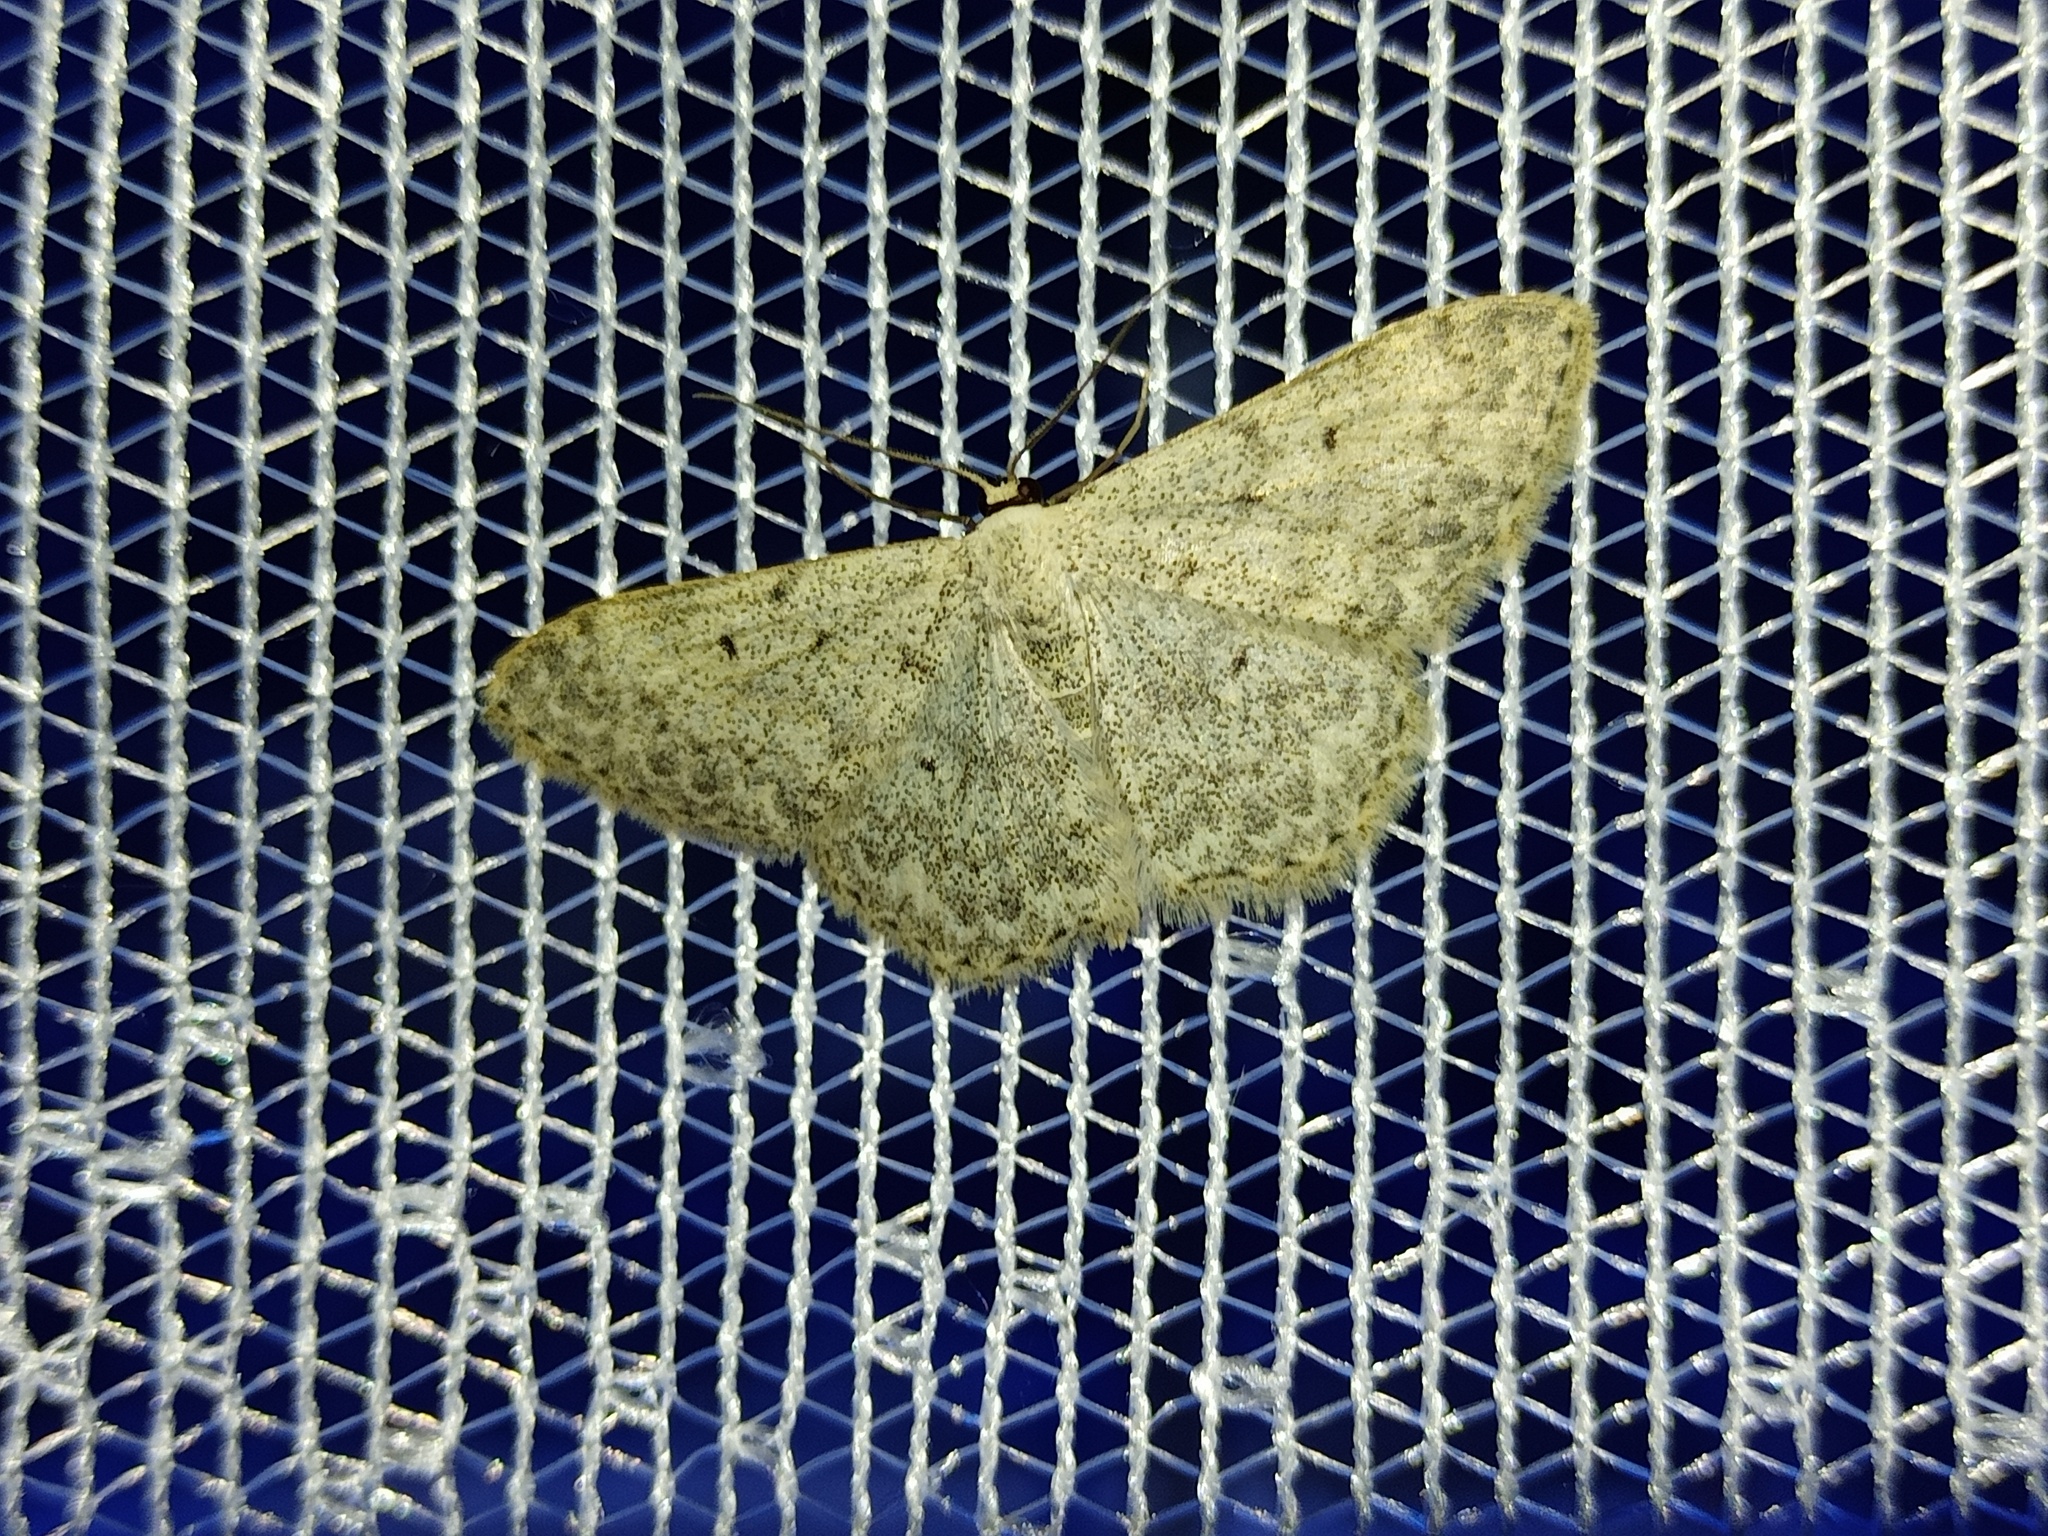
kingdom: Animalia
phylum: Arthropoda
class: Insecta
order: Lepidoptera
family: Geometridae
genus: Scopula
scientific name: Scopula marginepunctata
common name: Mullein wave
